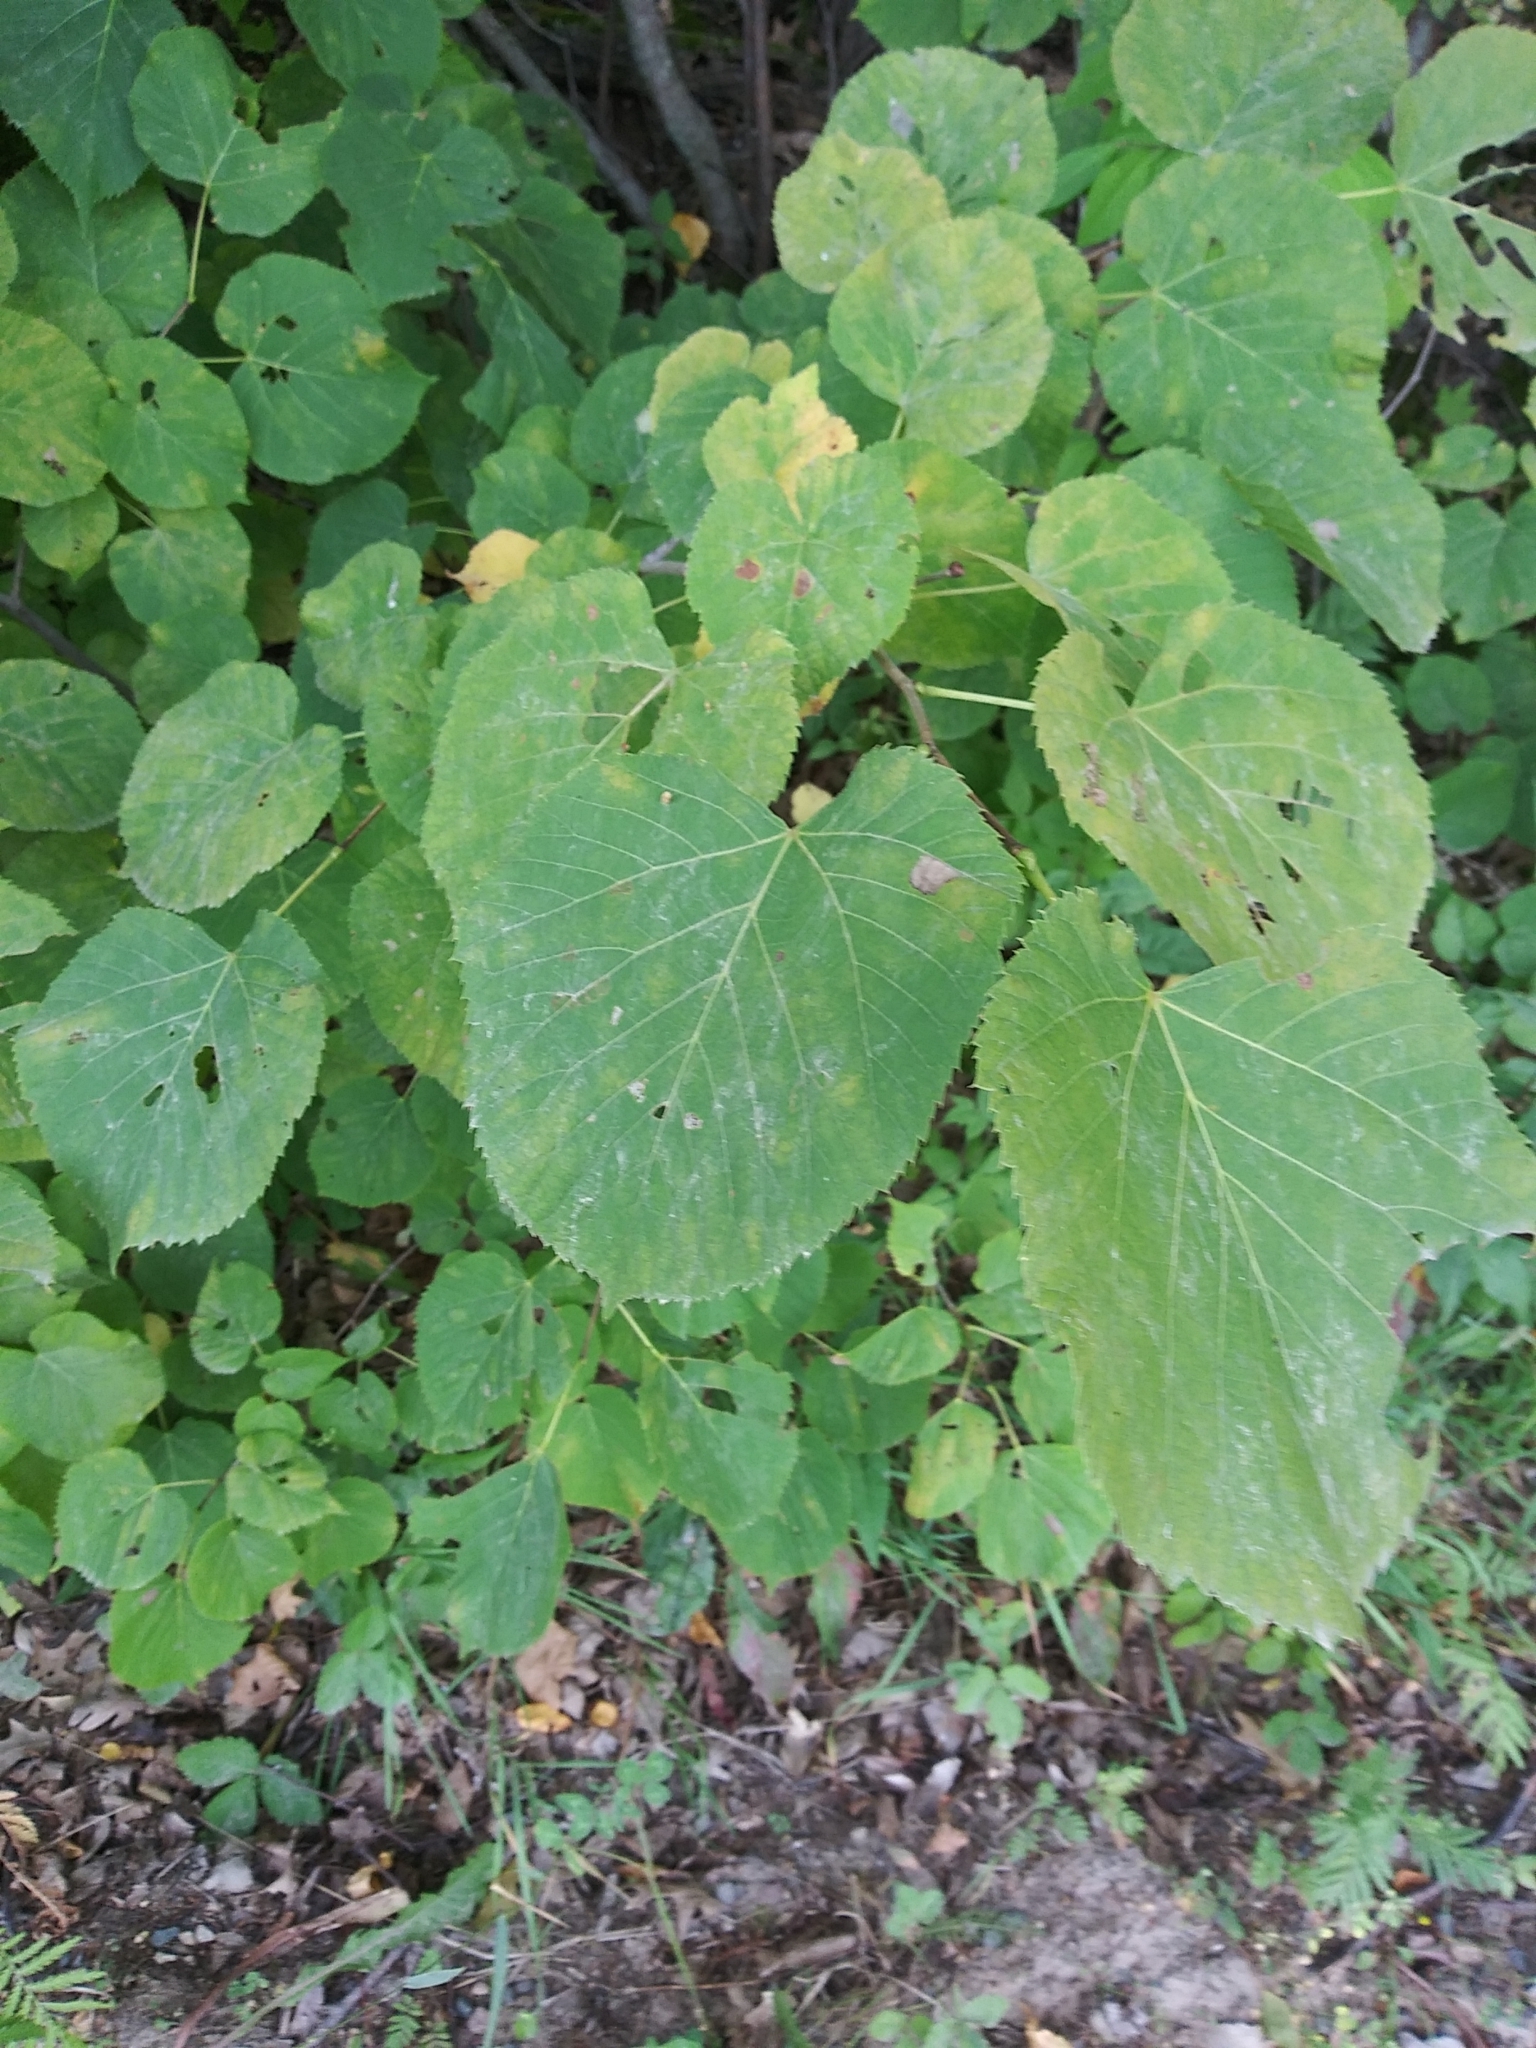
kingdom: Plantae
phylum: Tracheophyta
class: Magnoliopsida
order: Malvales
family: Malvaceae
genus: Tilia
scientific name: Tilia americana
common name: Basswood
